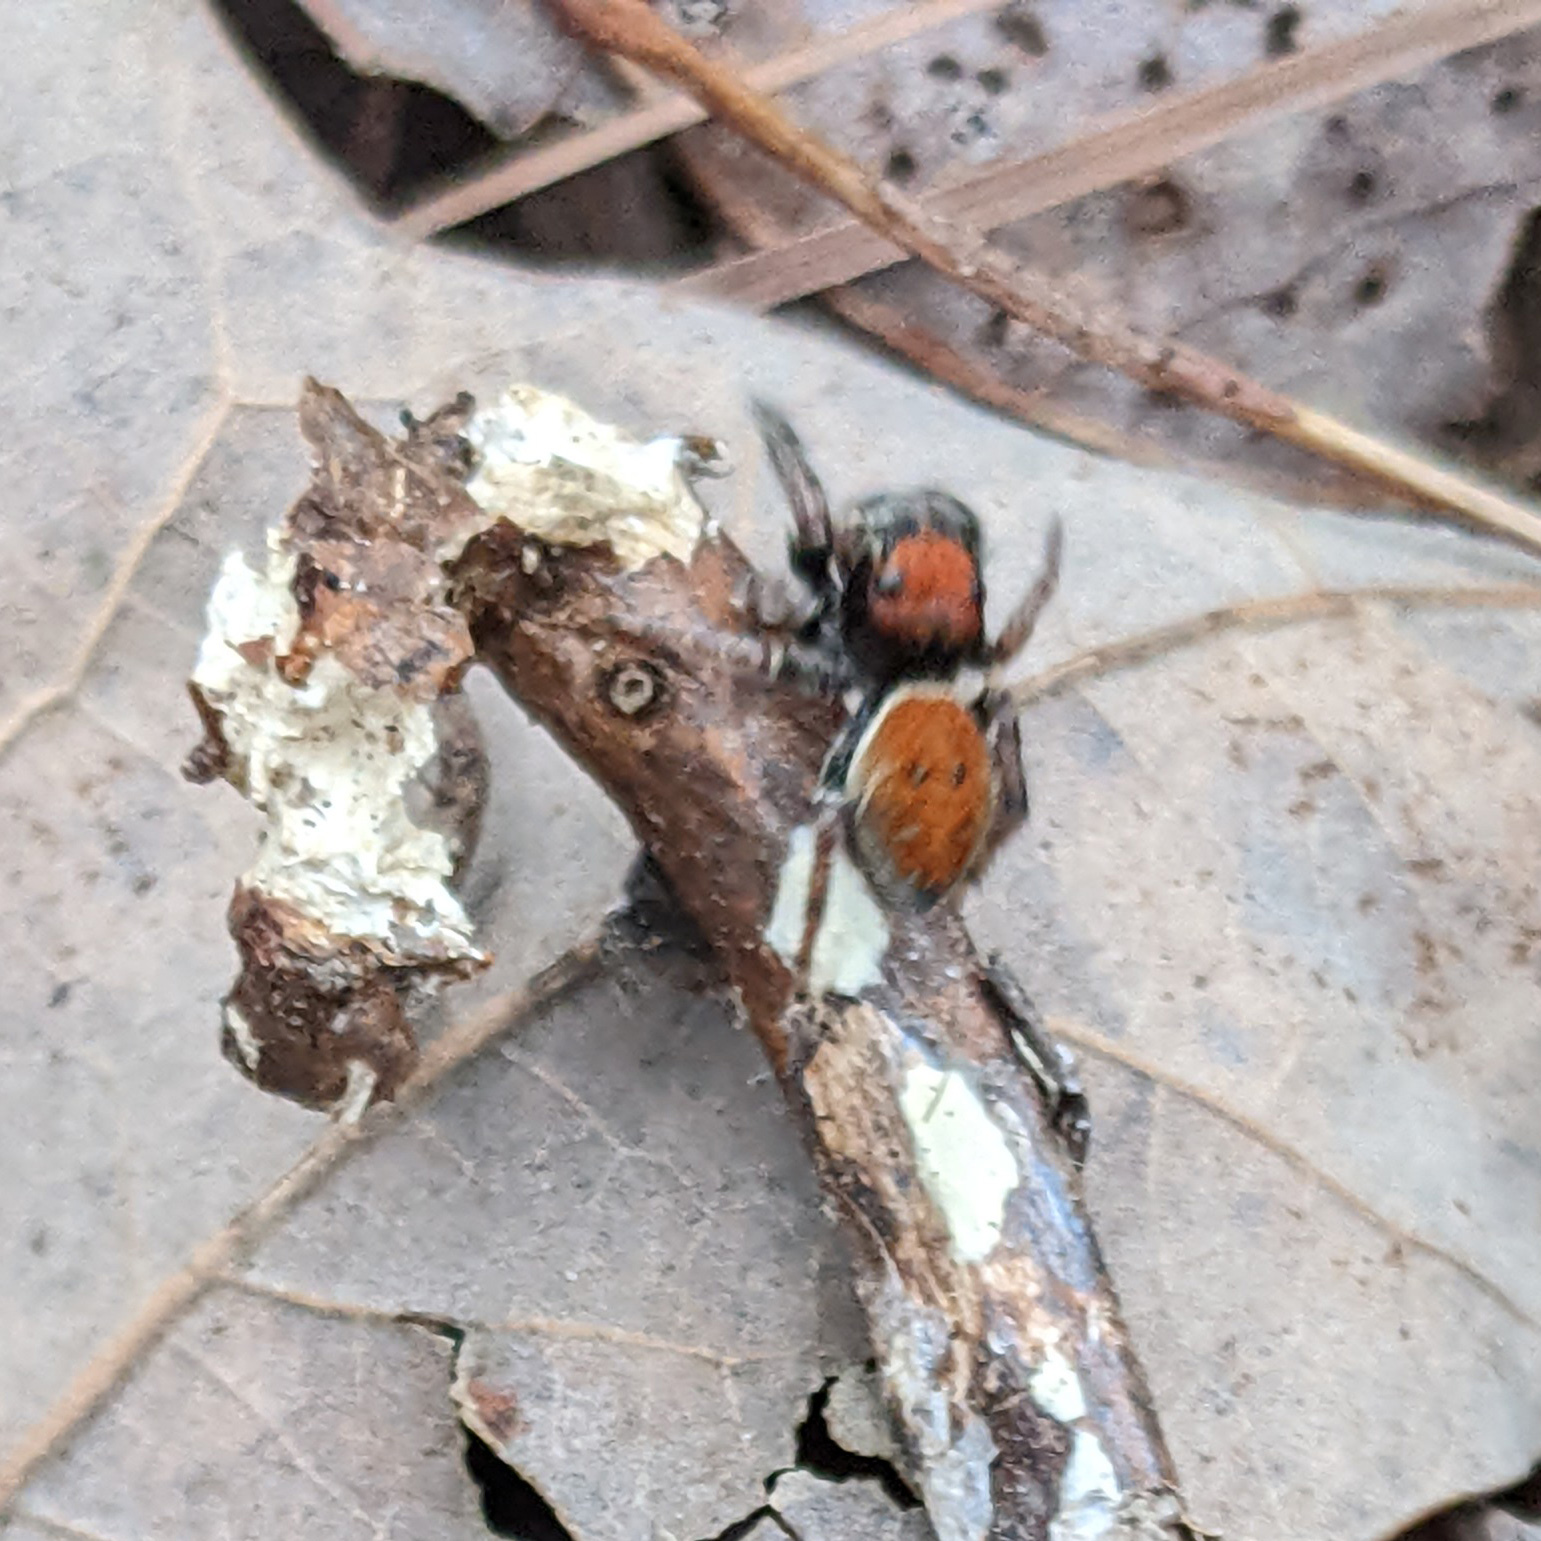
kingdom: Animalia
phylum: Arthropoda
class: Arachnida
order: Araneae
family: Salticidae
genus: Phidippus
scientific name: Phidippus whitmani
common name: Whitman's jumping spider
